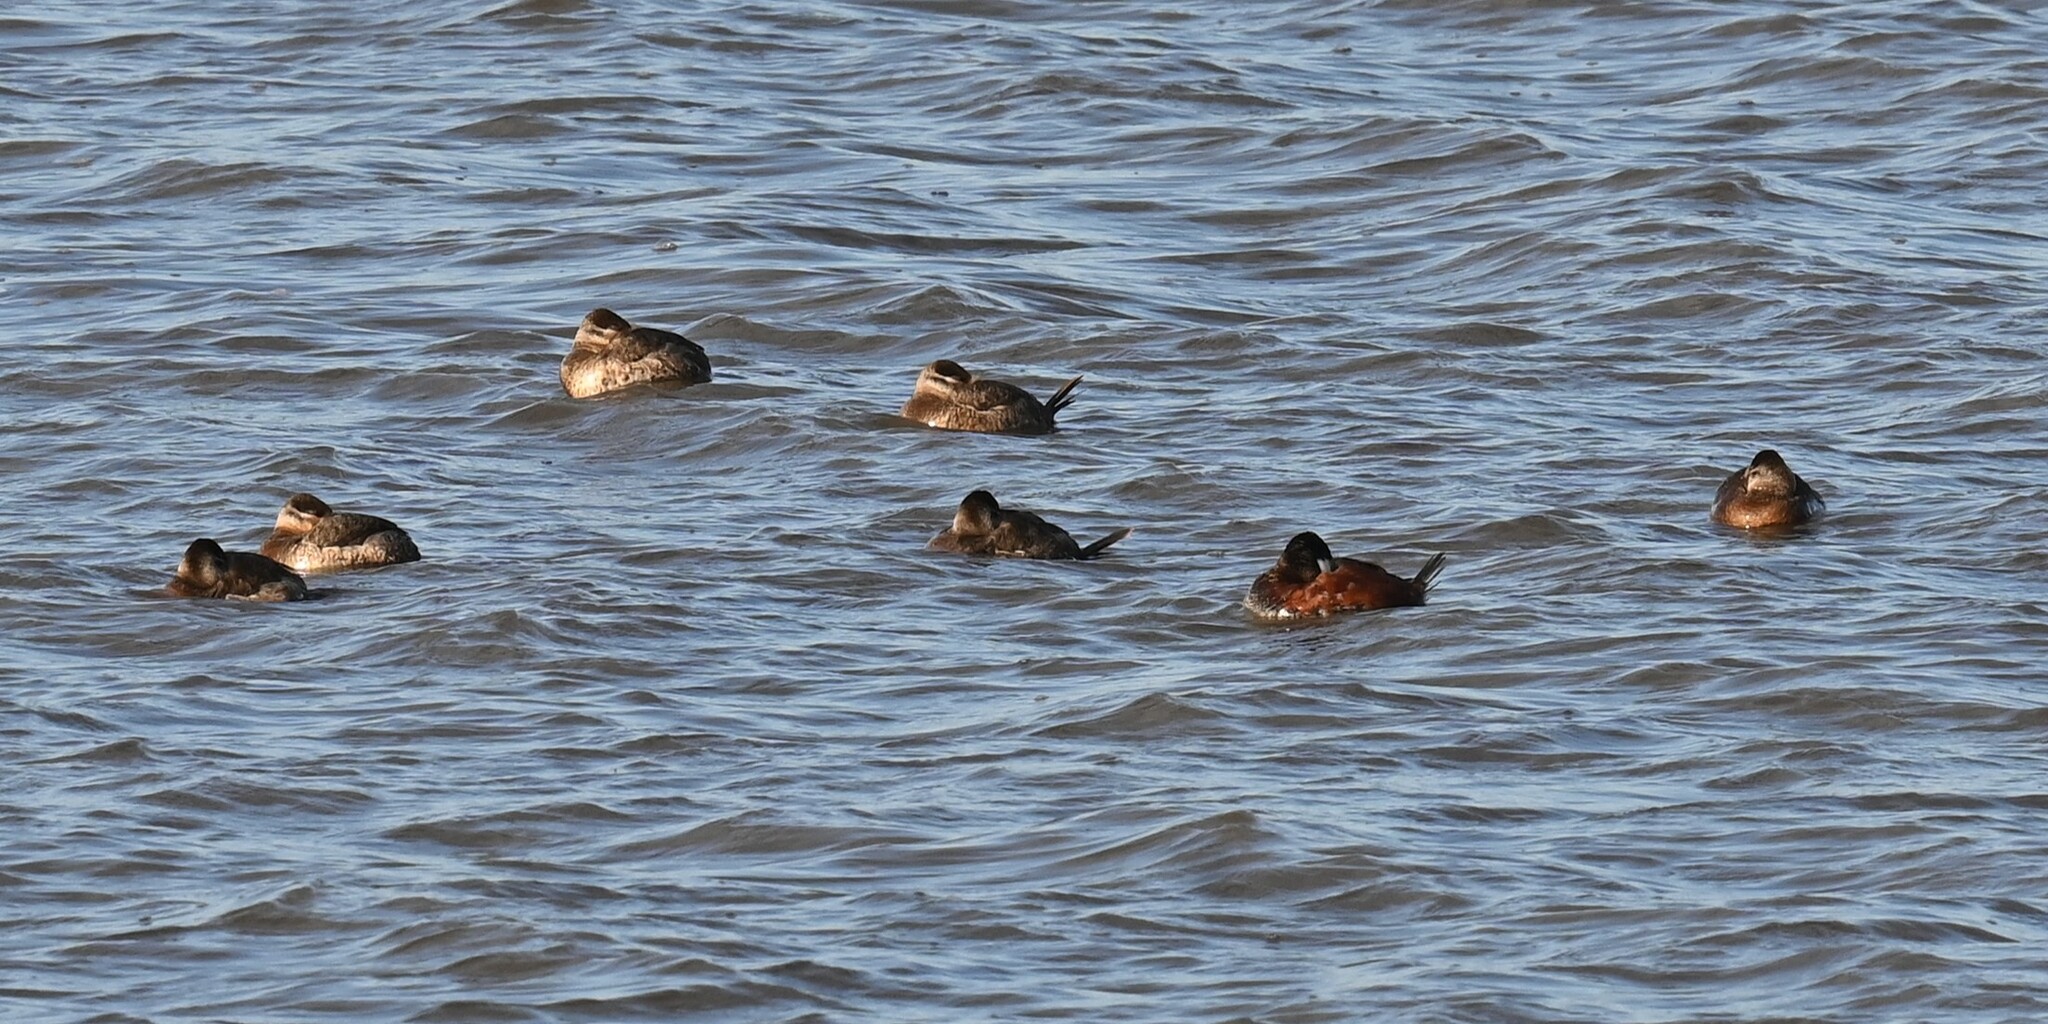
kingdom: Animalia
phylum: Chordata
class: Aves
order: Anseriformes
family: Anatidae
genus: Oxyura
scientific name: Oxyura jamaicensis
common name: Ruddy duck
